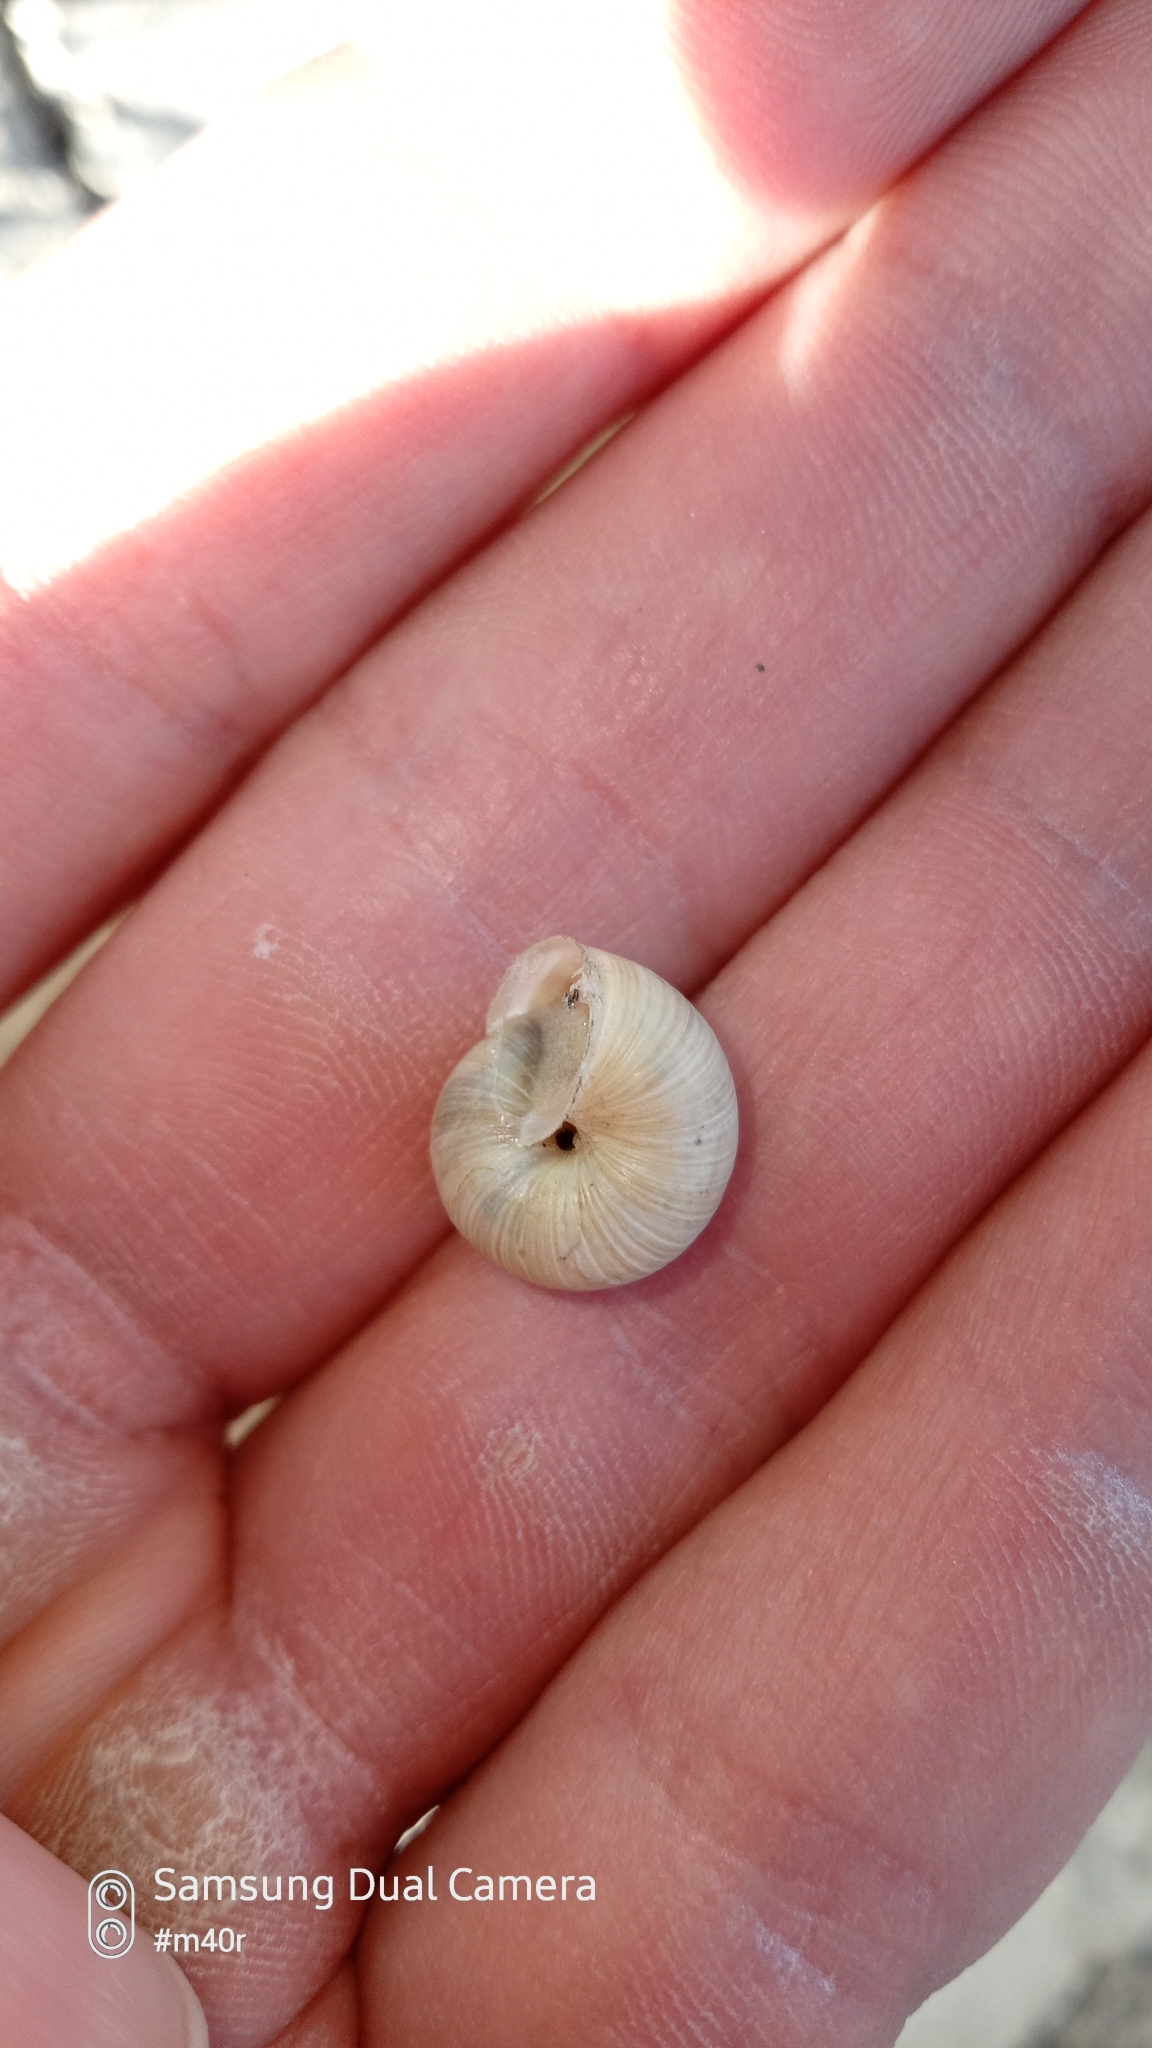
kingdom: Animalia
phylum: Mollusca
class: Gastropoda
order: Stylommatophora
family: Hygromiidae
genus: Harmozica
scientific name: Harmozica ravergiensis
